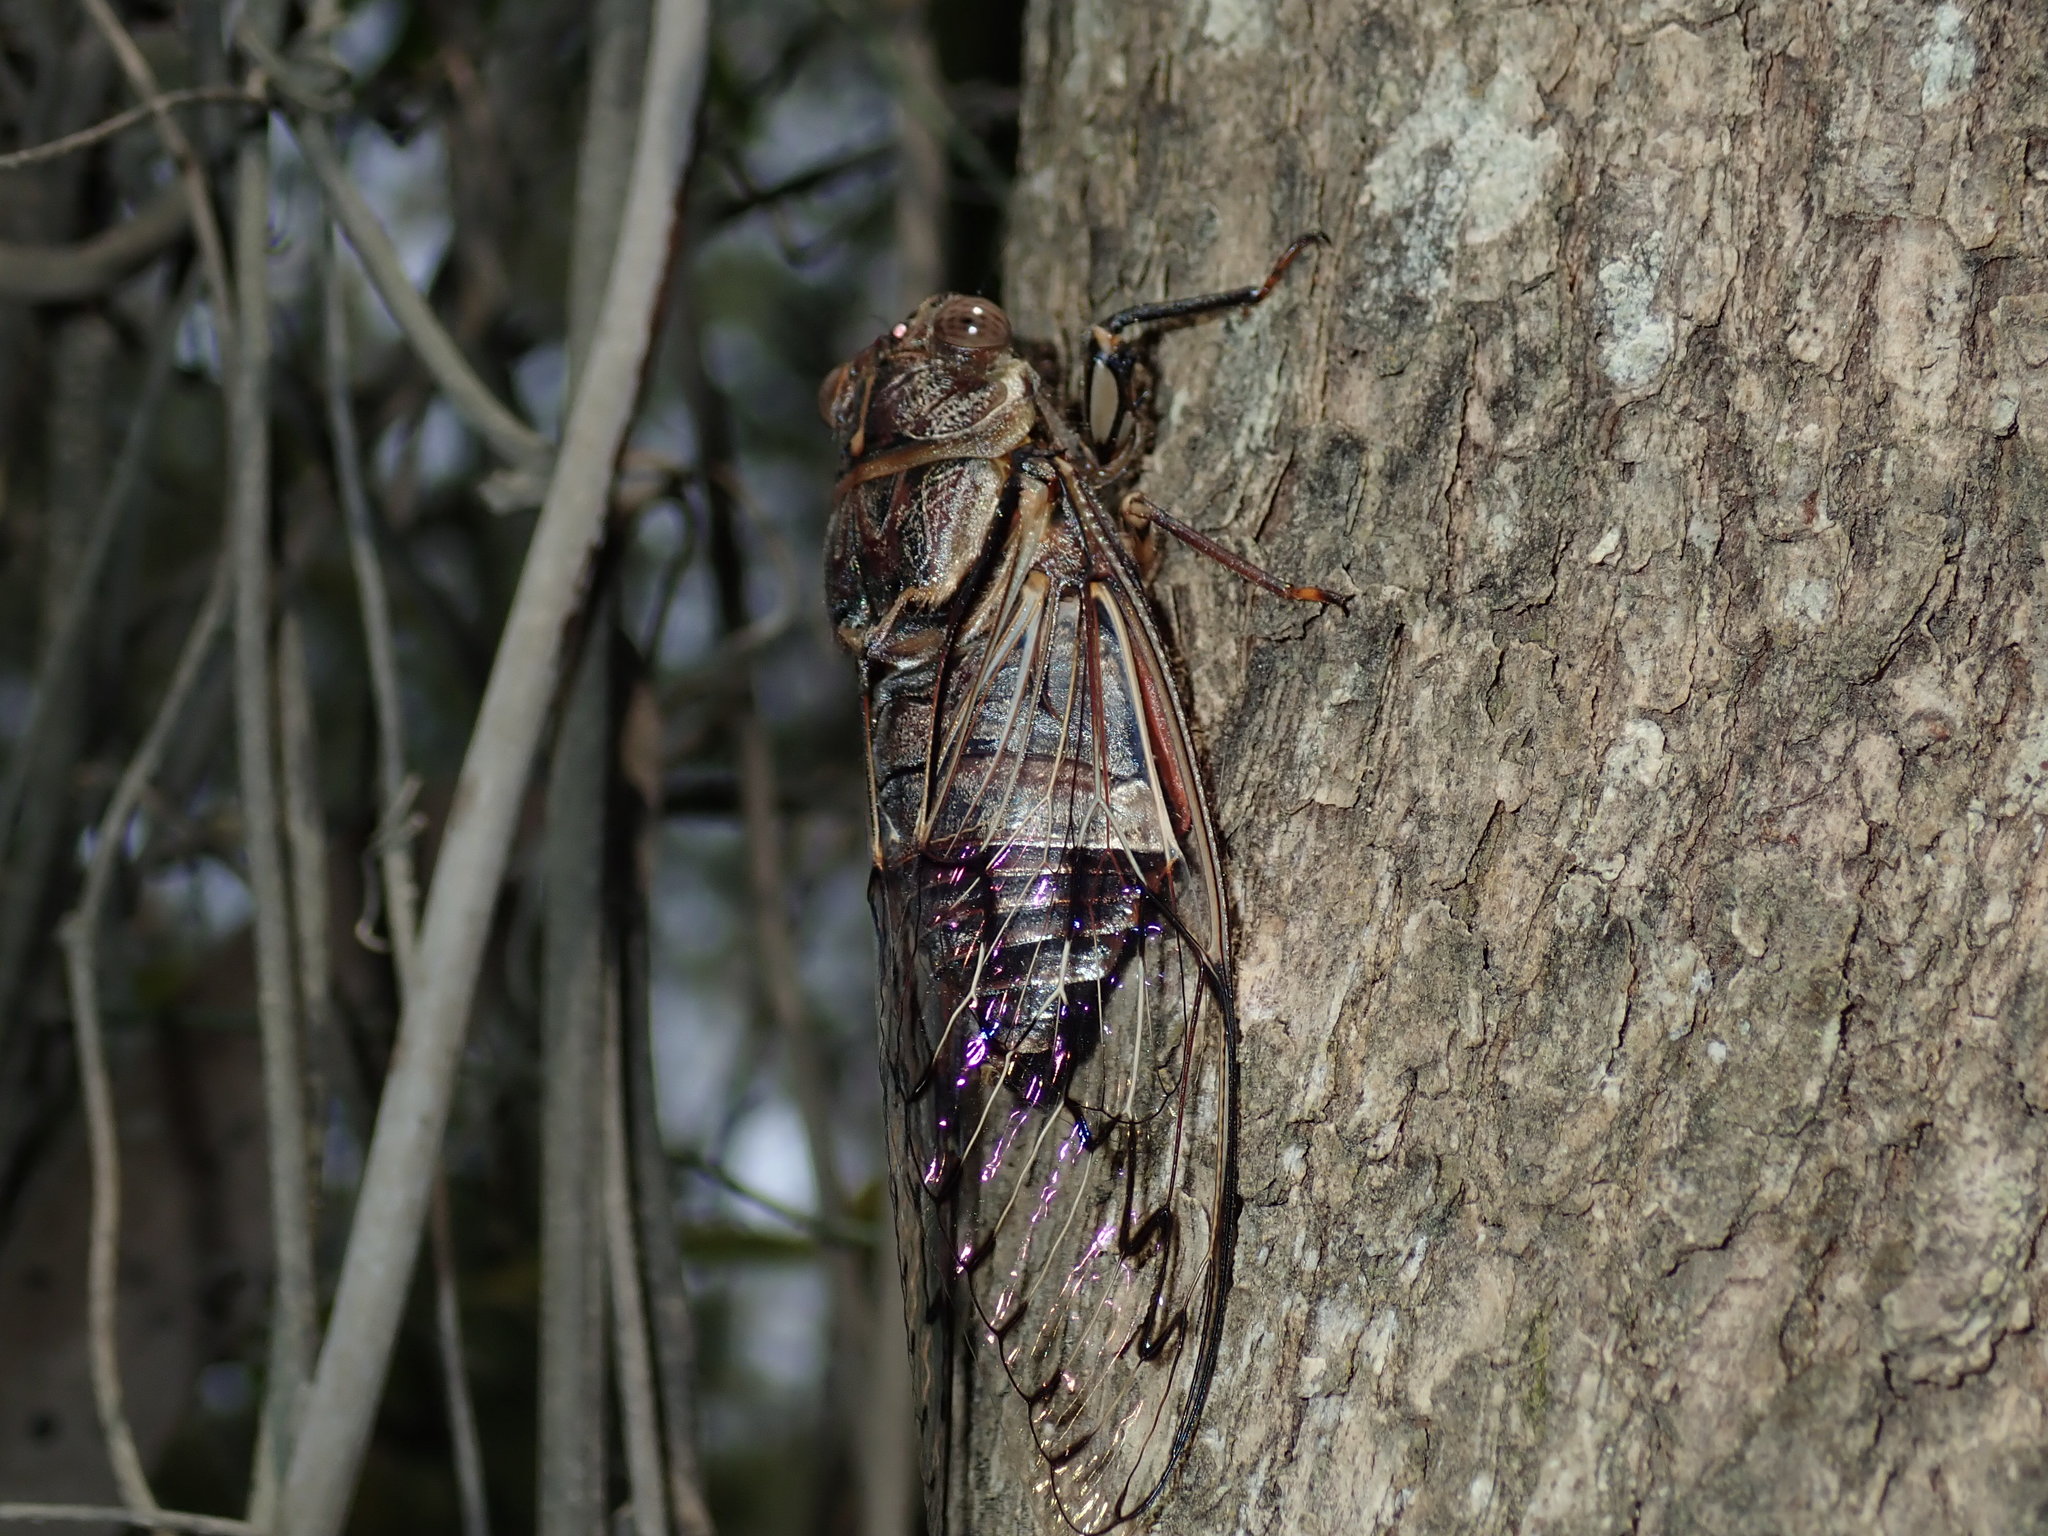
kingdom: Animalia
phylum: Arthropoda
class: Insecta
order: Hemiptera
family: Cicadidae
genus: Henicopsaltria
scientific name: Henicopsaltria eydouxii
